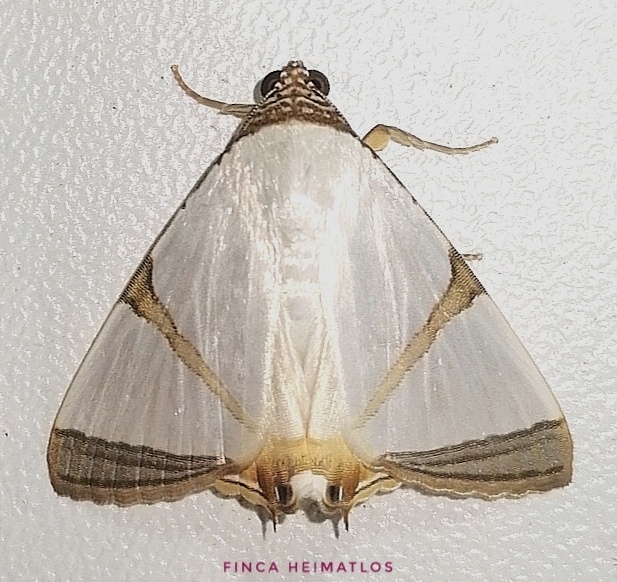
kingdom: Animalia
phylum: Arthropoda
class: Insecta
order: Lepidoptera
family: Erebidae
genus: Eulepidotis
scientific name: Eulepidotis nicaea
